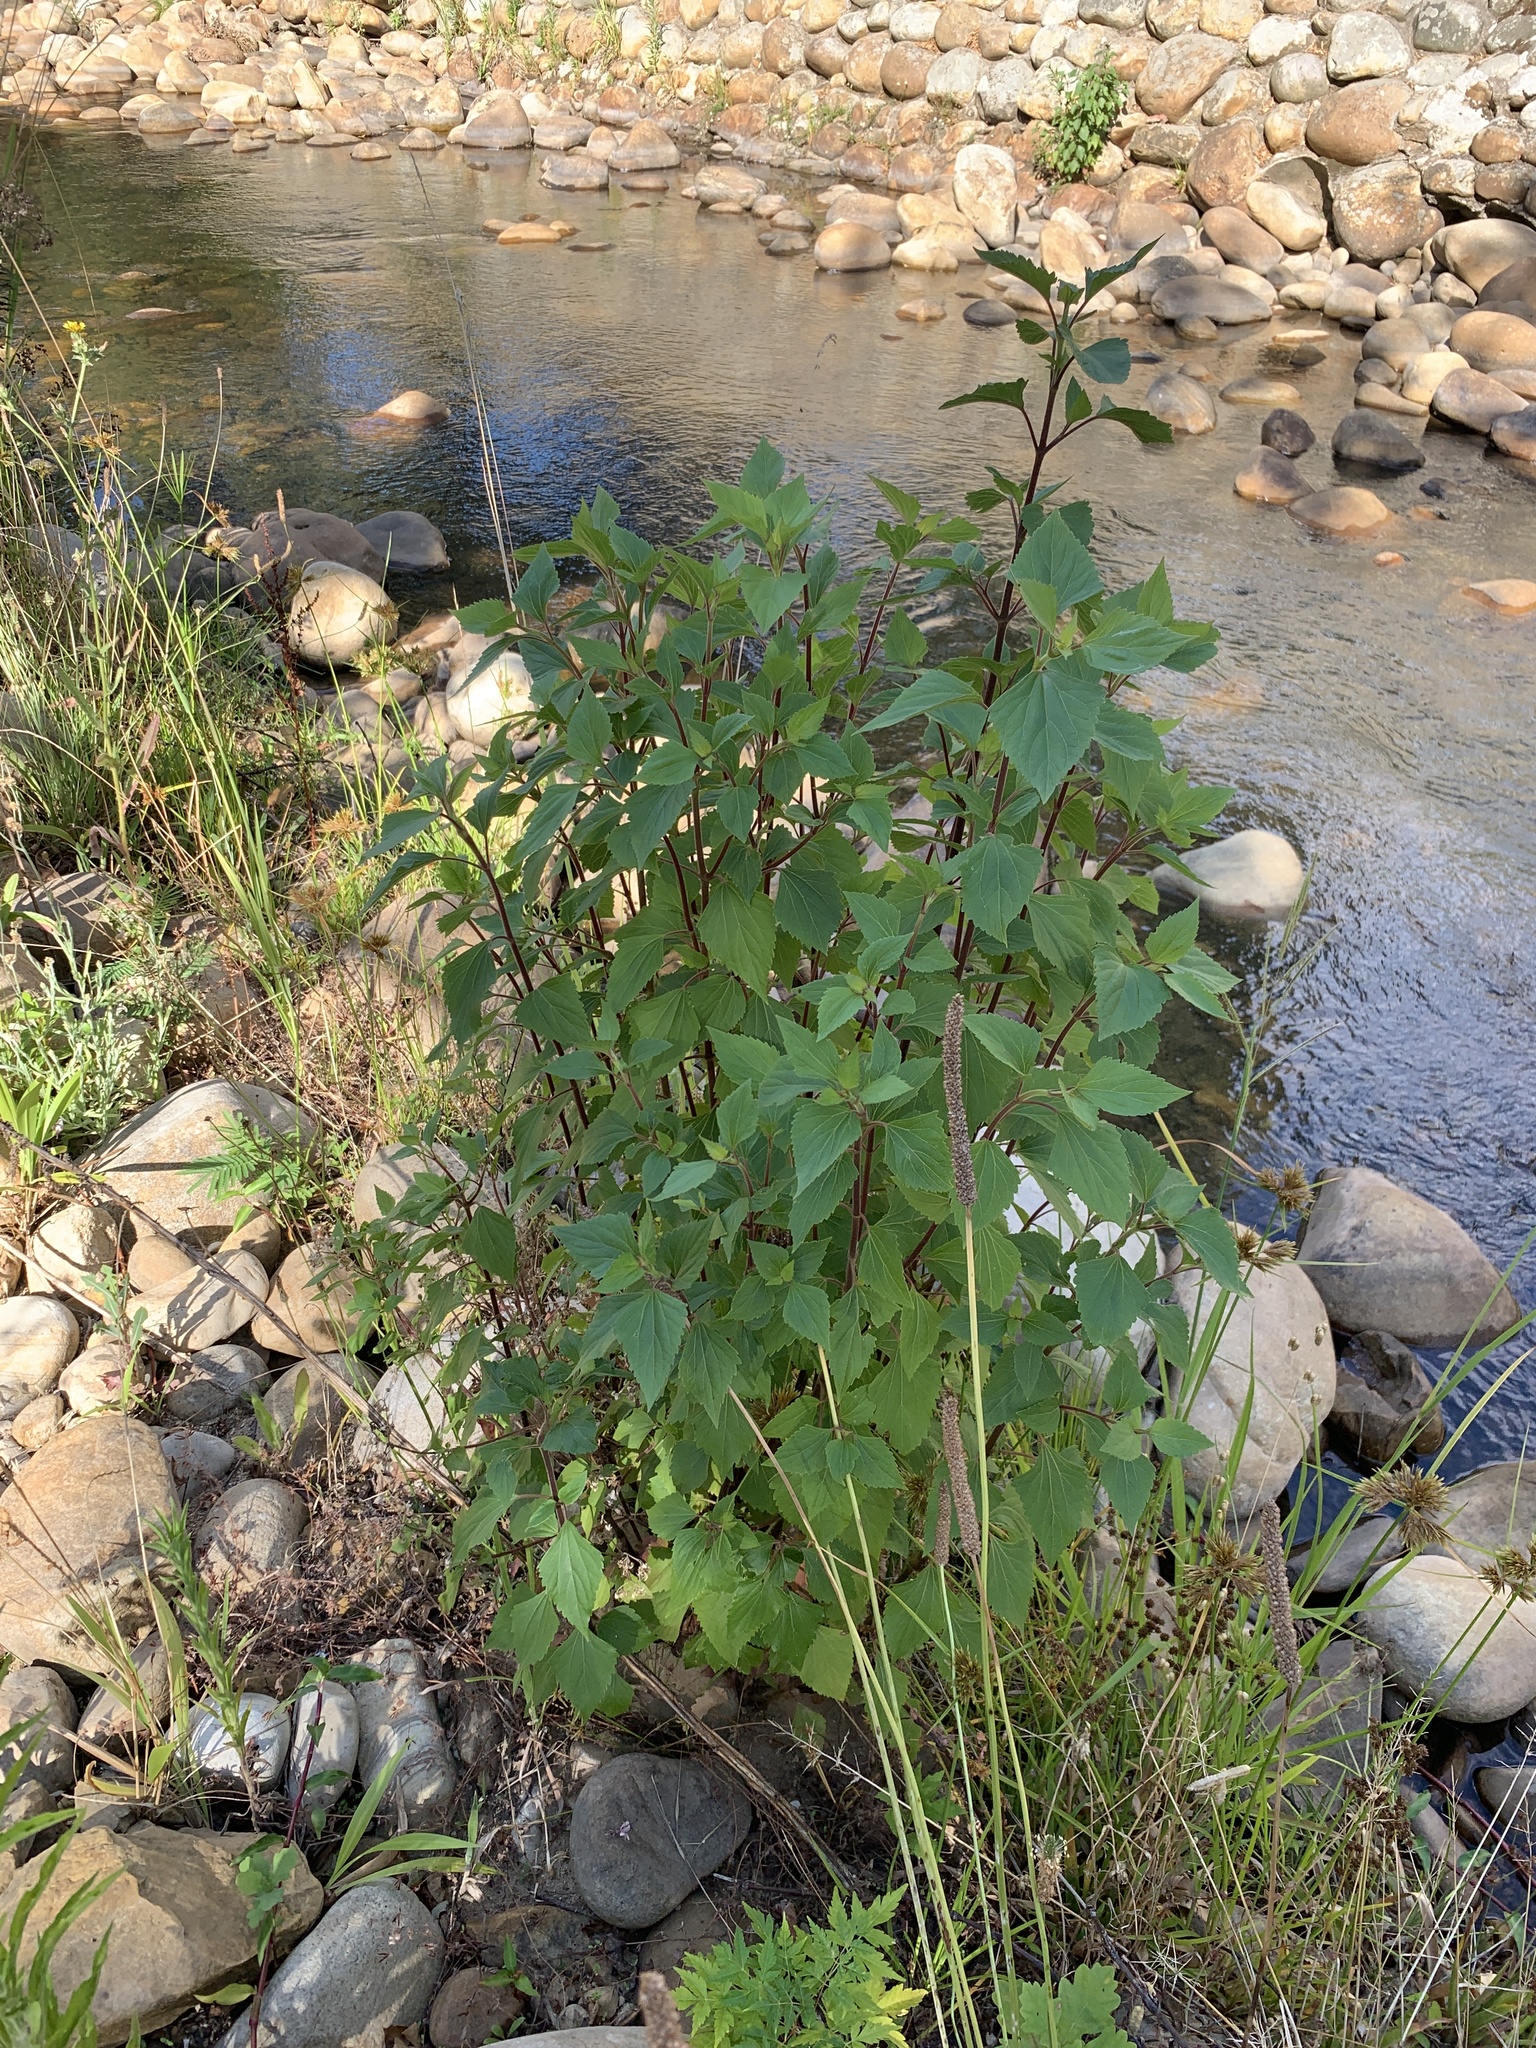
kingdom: Plantae
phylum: Tracheophyta
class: Magnoliopsida
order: Asterales
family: Asteraceae
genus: Ageratina
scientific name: Ageratina adenophora
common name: Sticky snakeroot
